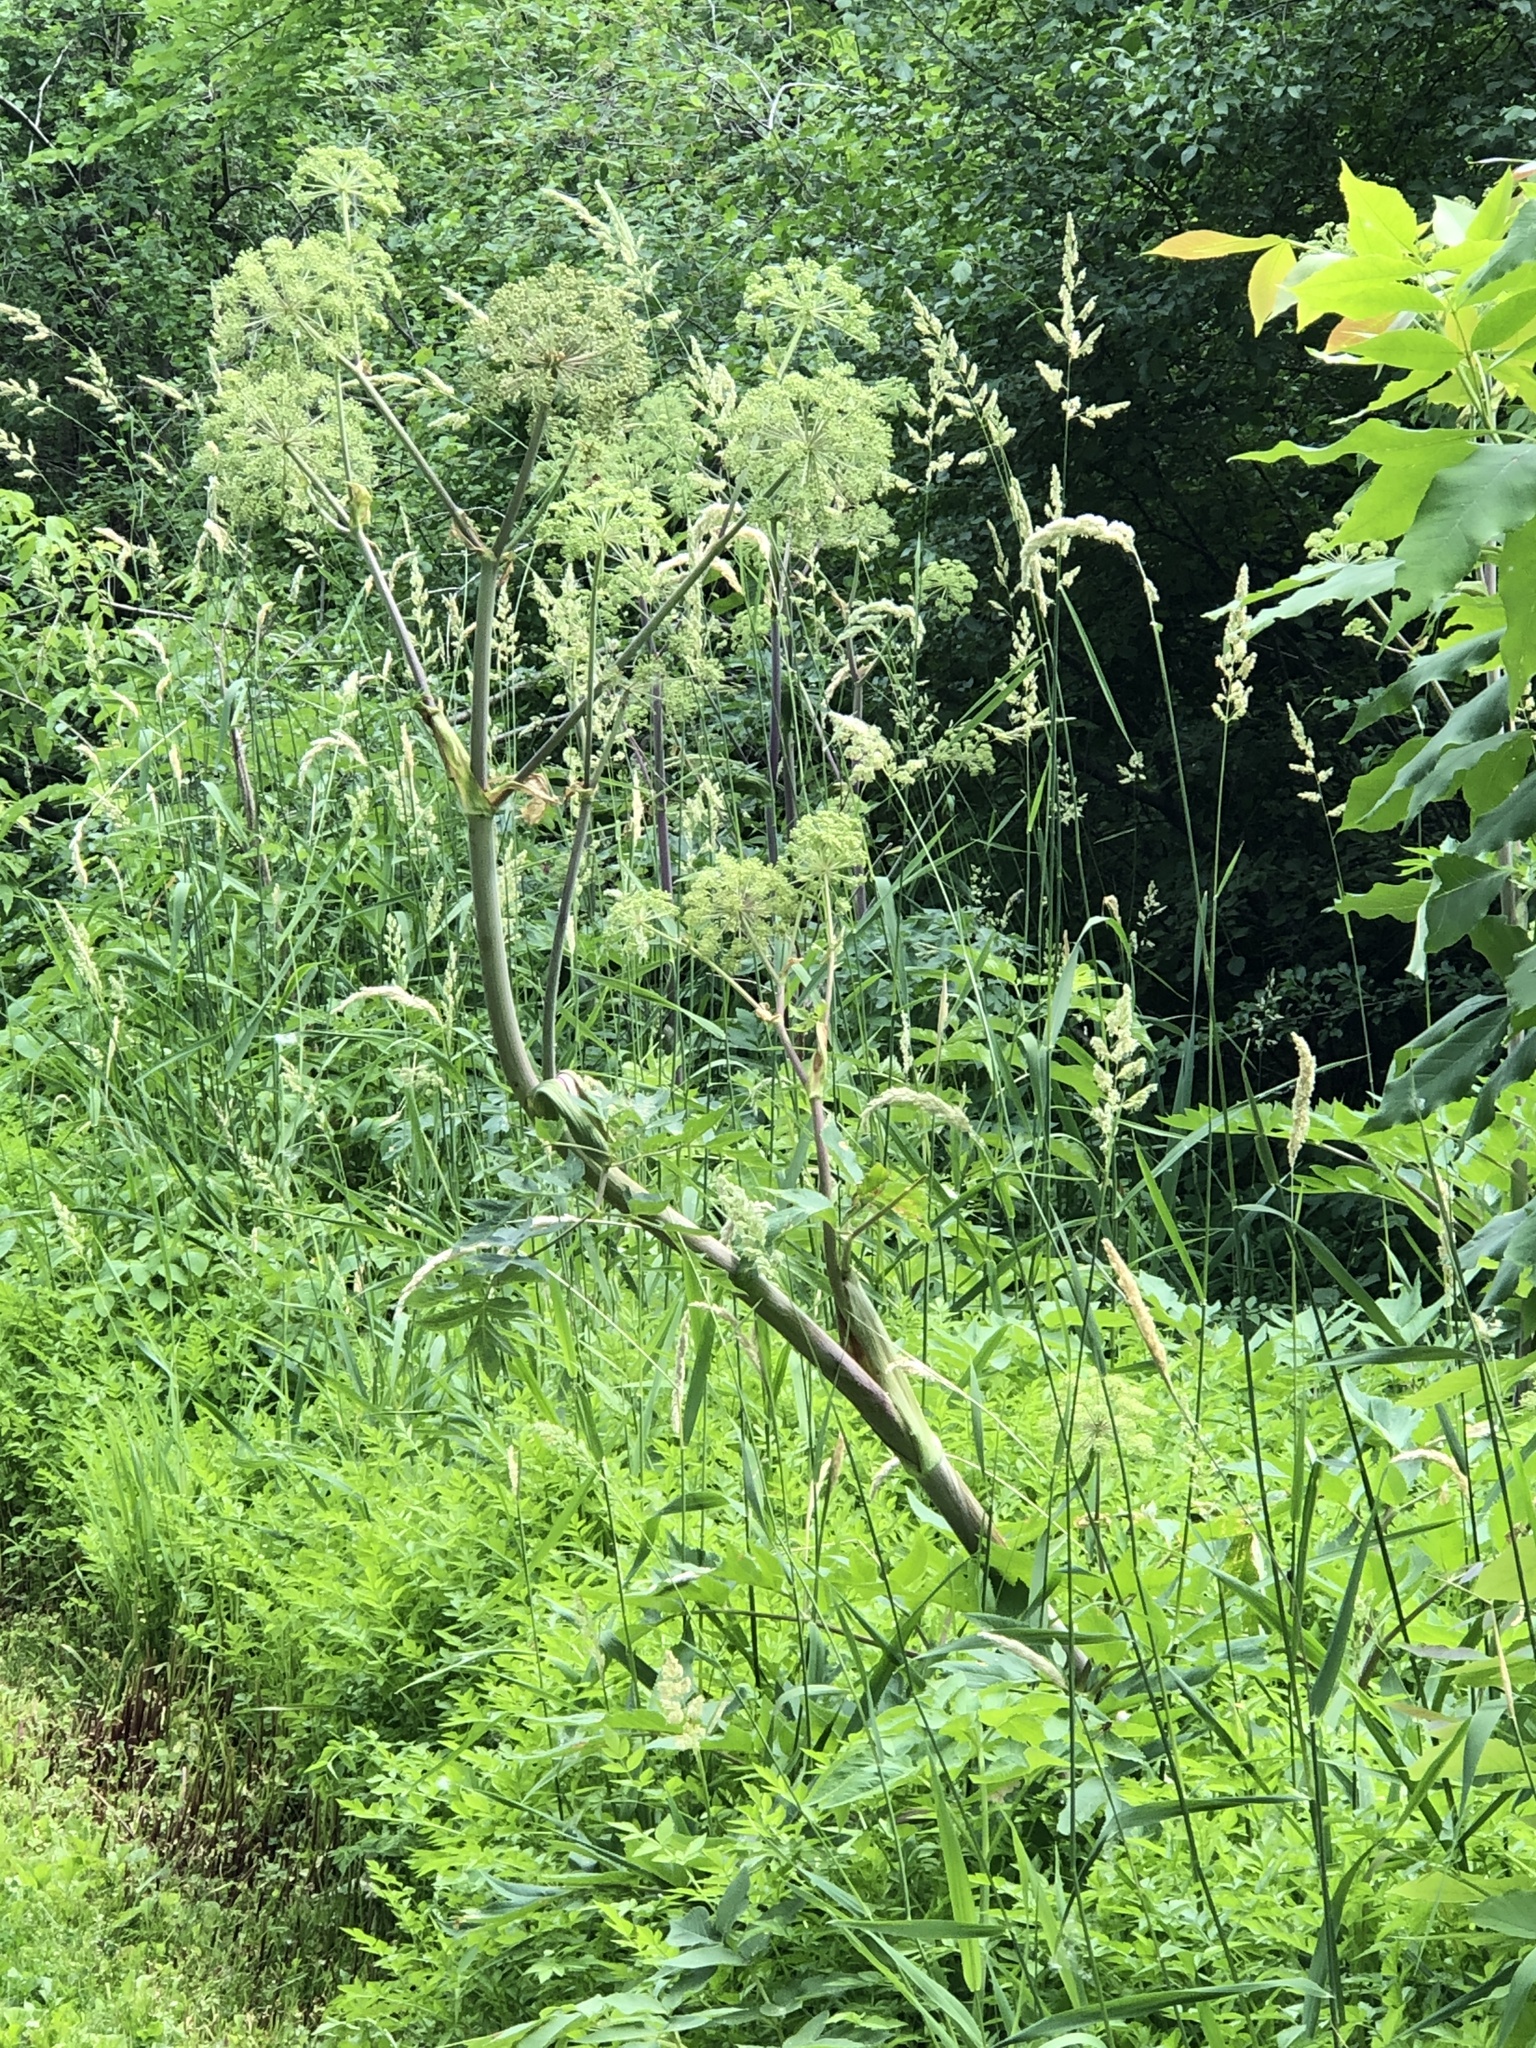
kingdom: Plantae
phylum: Tracheophyta
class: Magnoliopsida
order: Apiales
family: Apiaceae
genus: Angelica
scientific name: Angelica atropurpurea
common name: Great angelica
